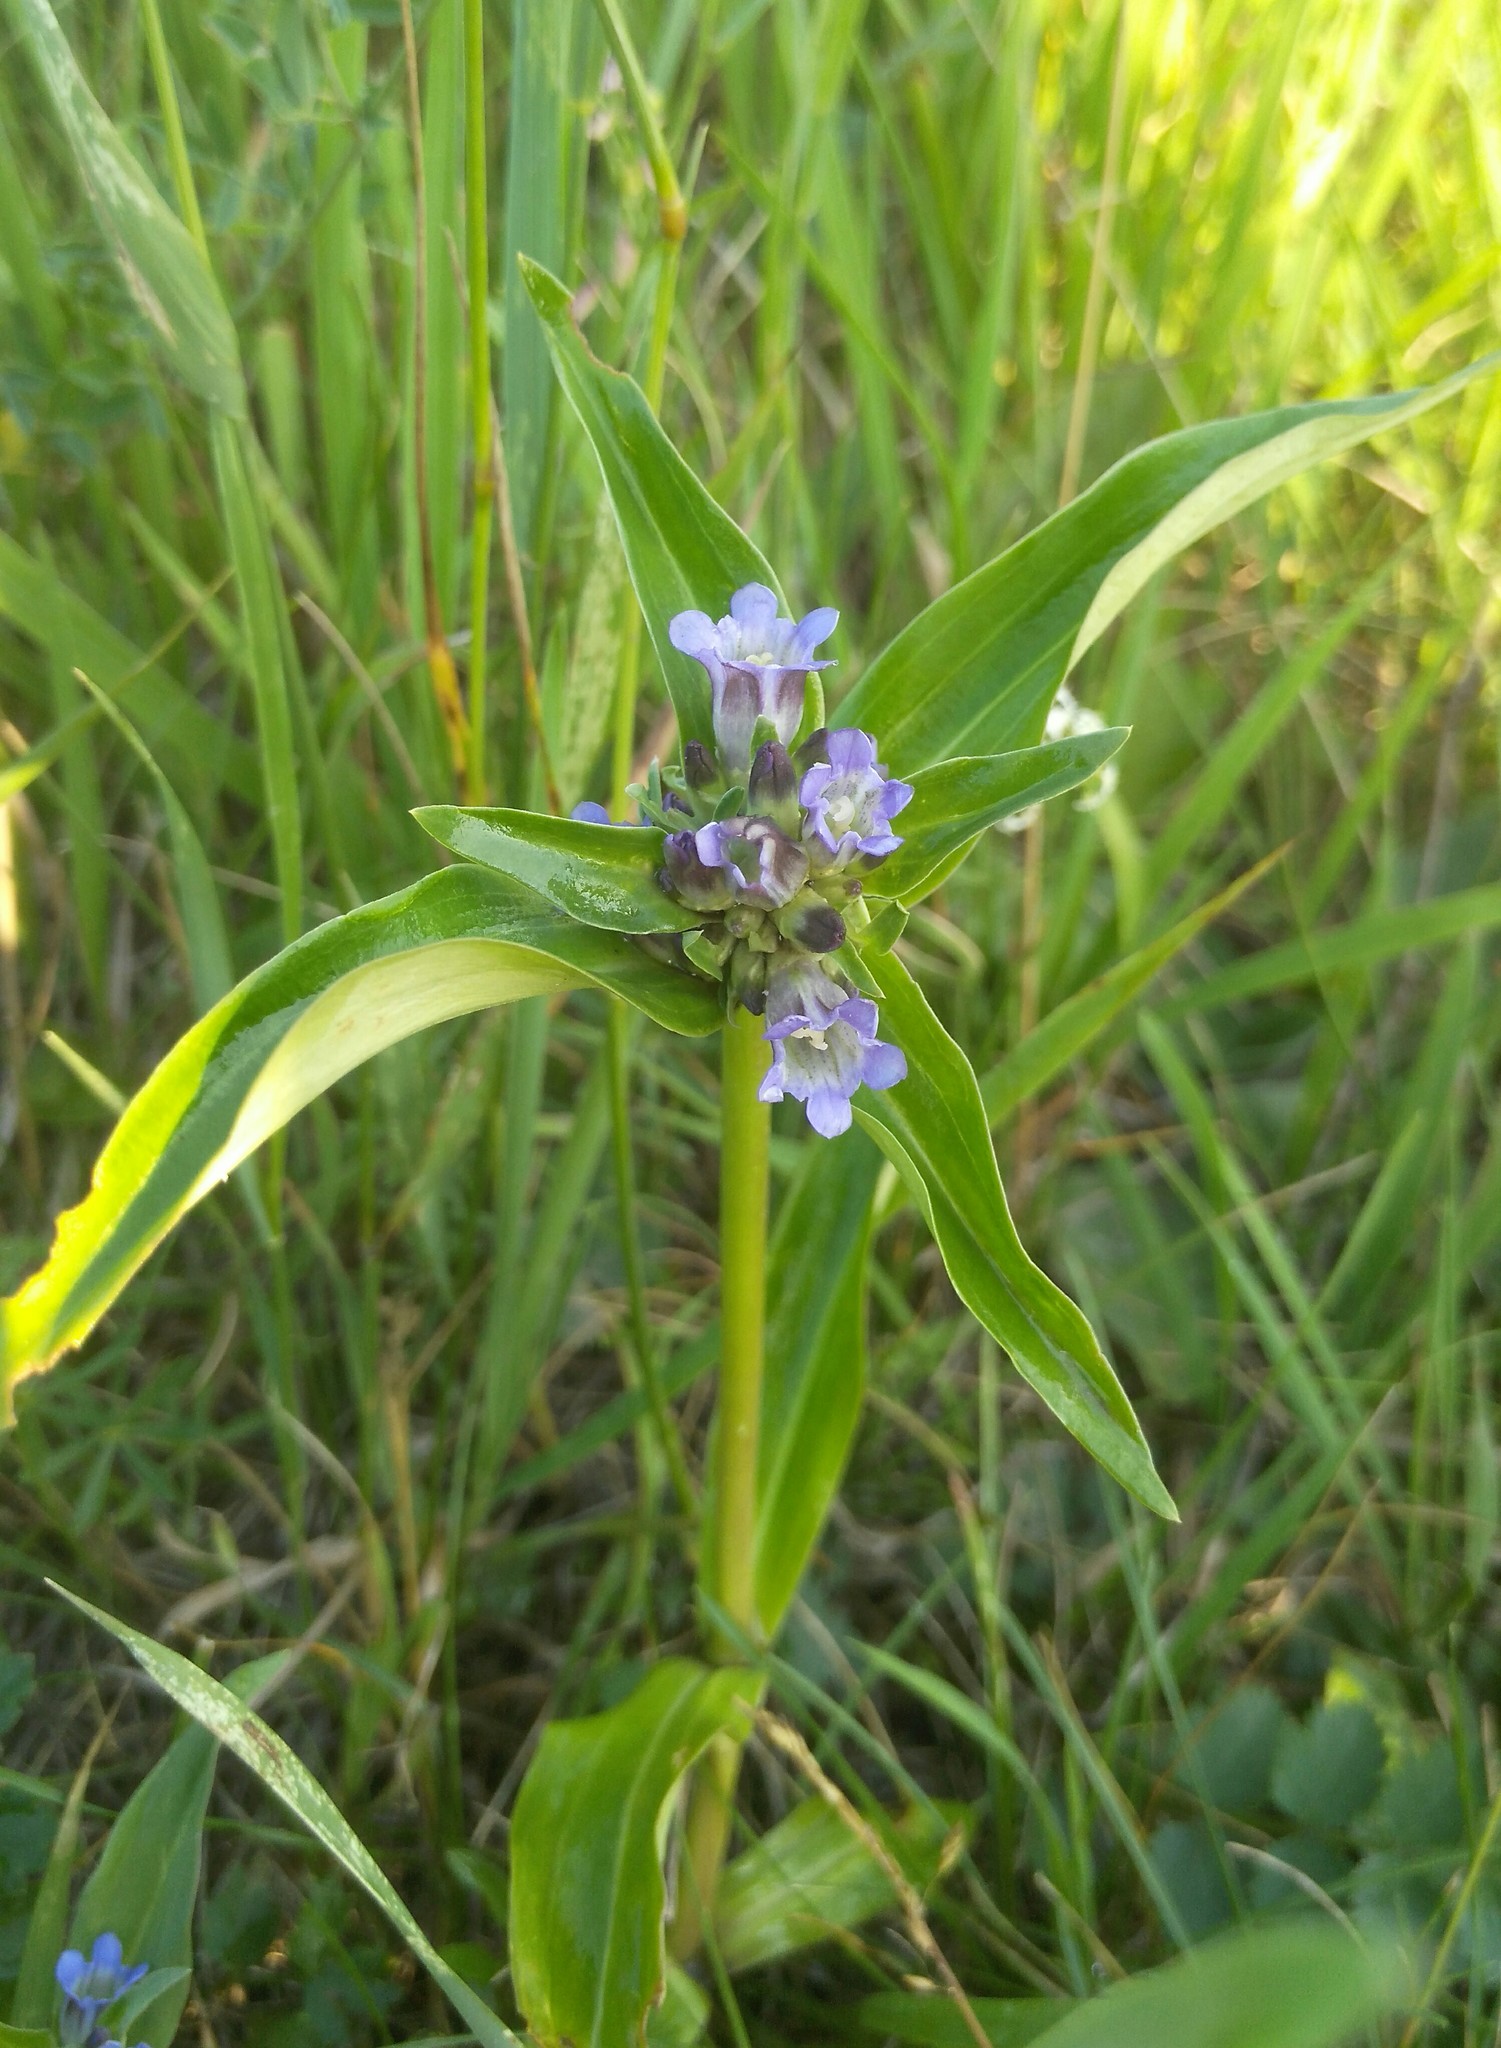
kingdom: Plantae
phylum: Tracheophyta
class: Magnoliopsida
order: Gentianales
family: Gentianaceae
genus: Gentiana
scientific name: Gentiana macrophylla
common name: Large-leaf gentian
